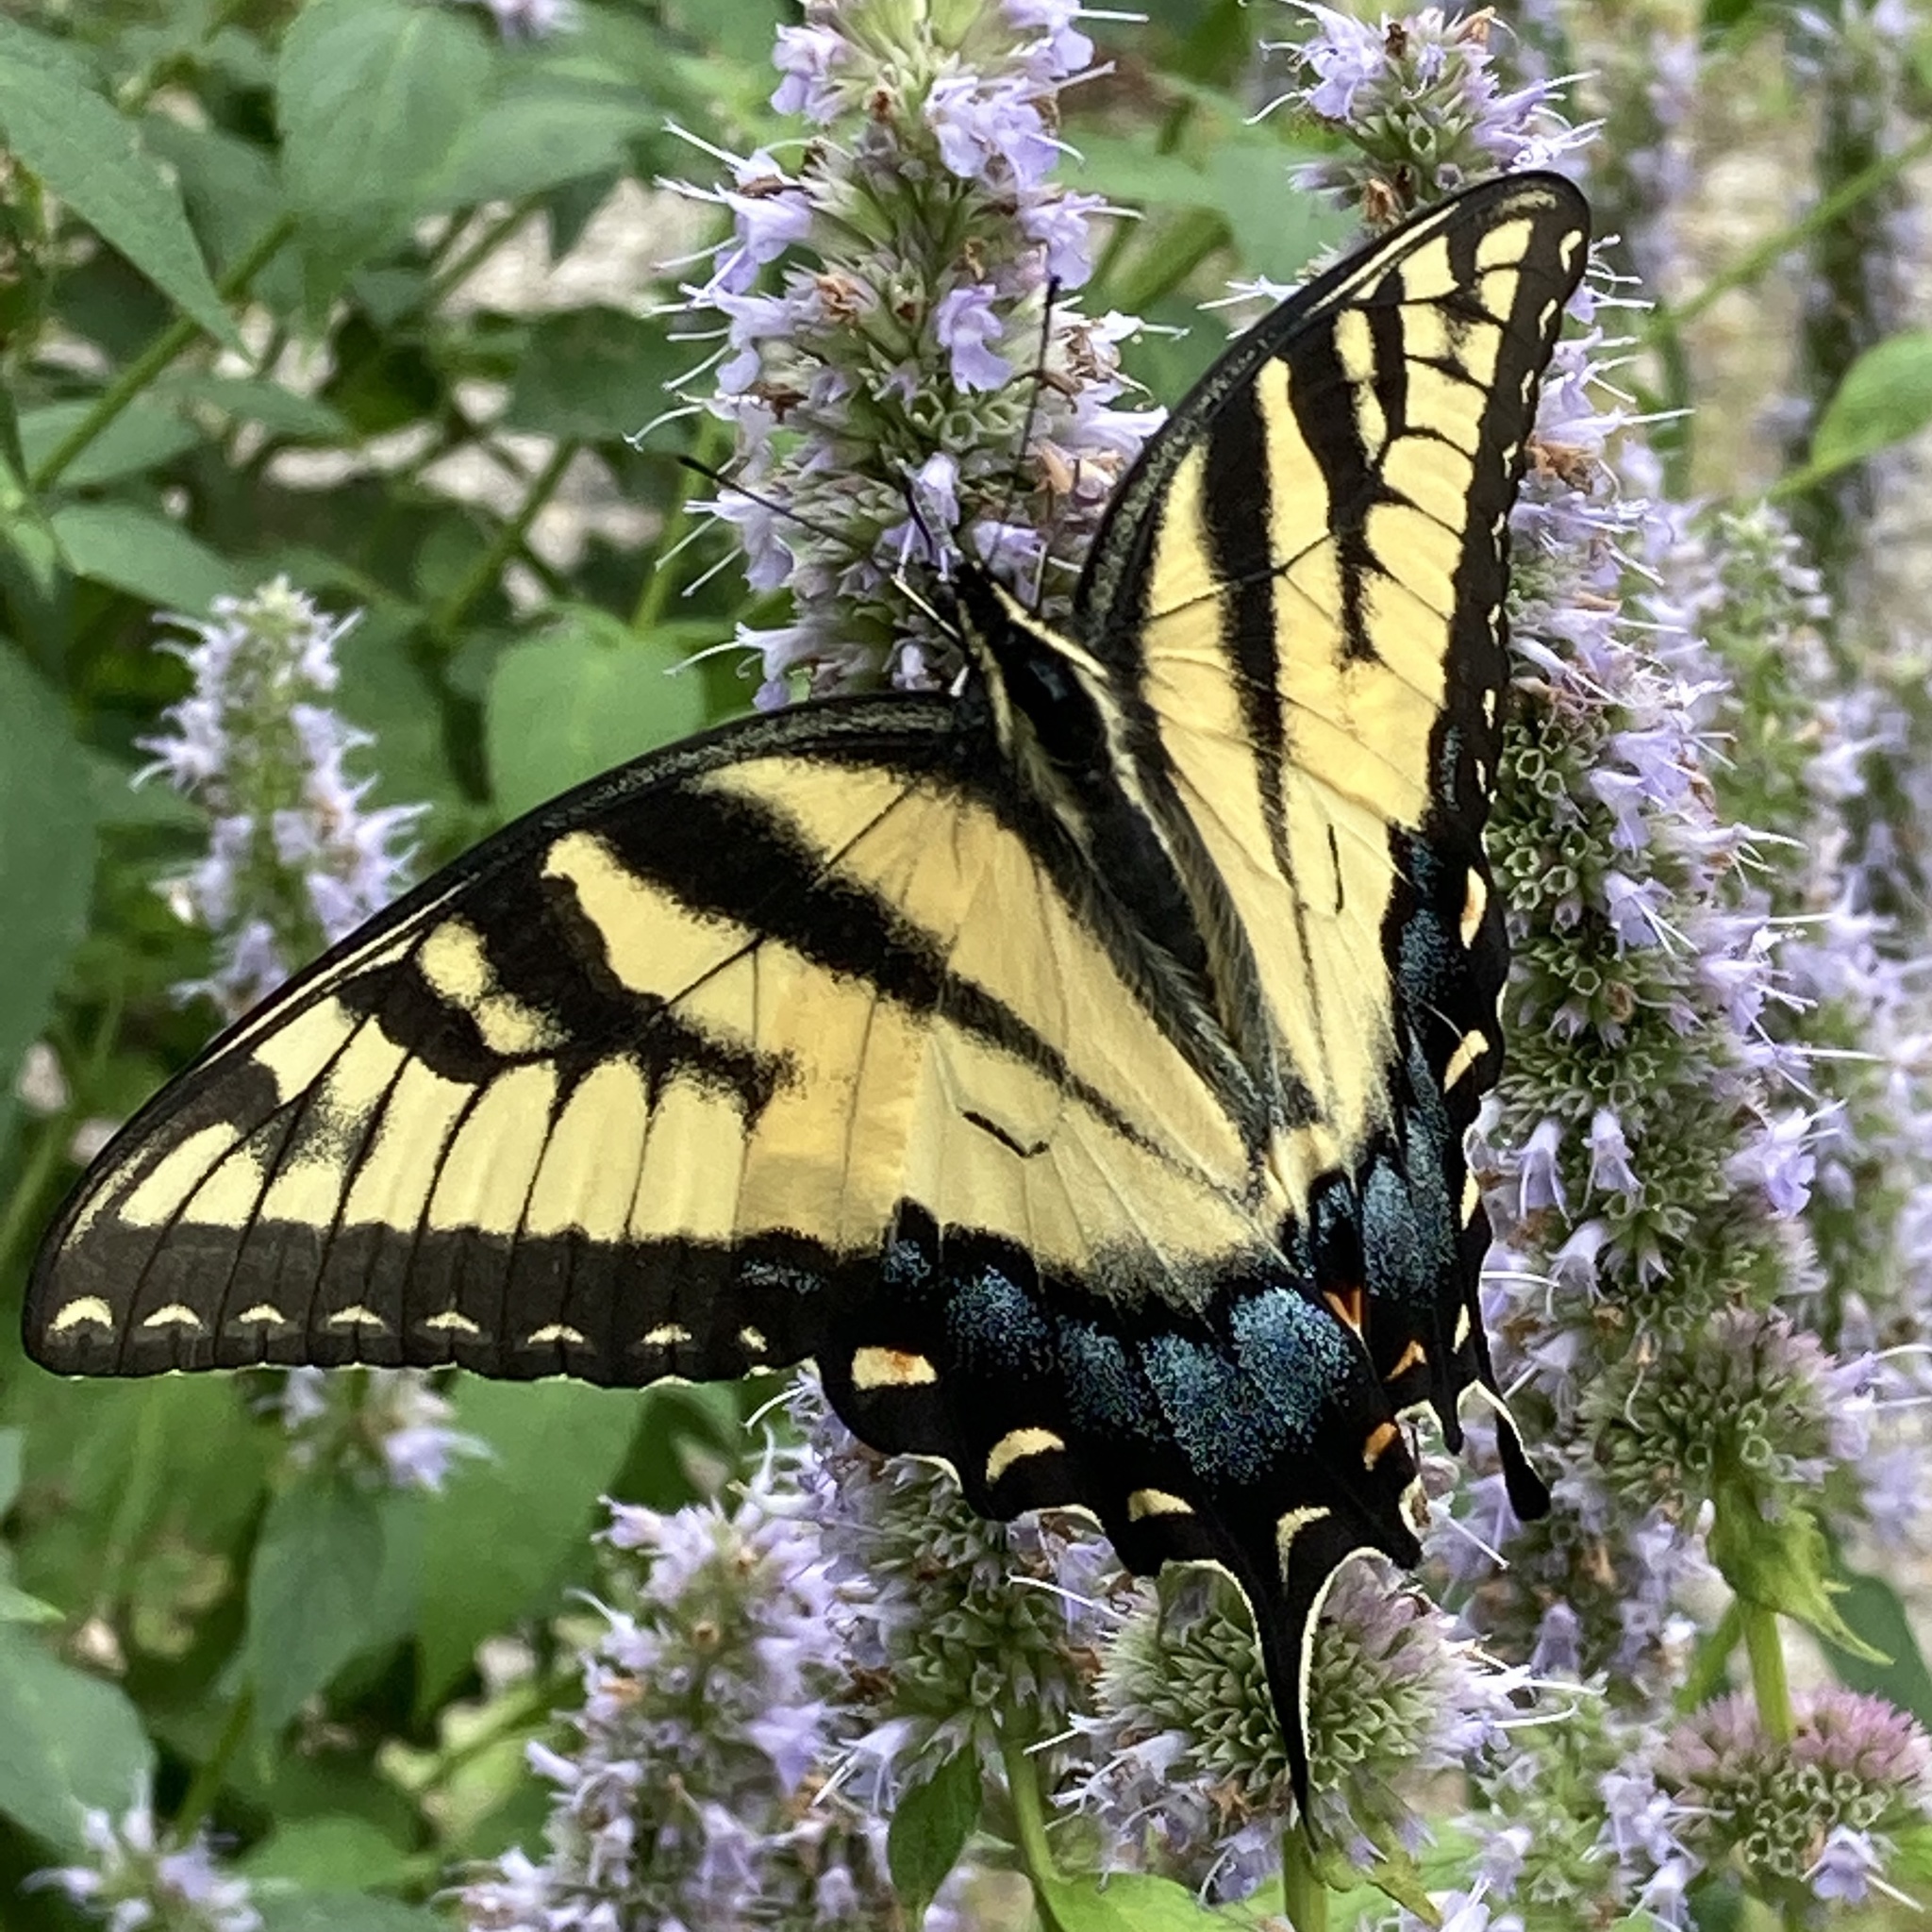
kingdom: Animalia
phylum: Arthropoda
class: Insecta
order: Lepidoptera
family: Papilionidae
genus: Papilio
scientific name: Papilio glaucus
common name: Tiger swallowtail
